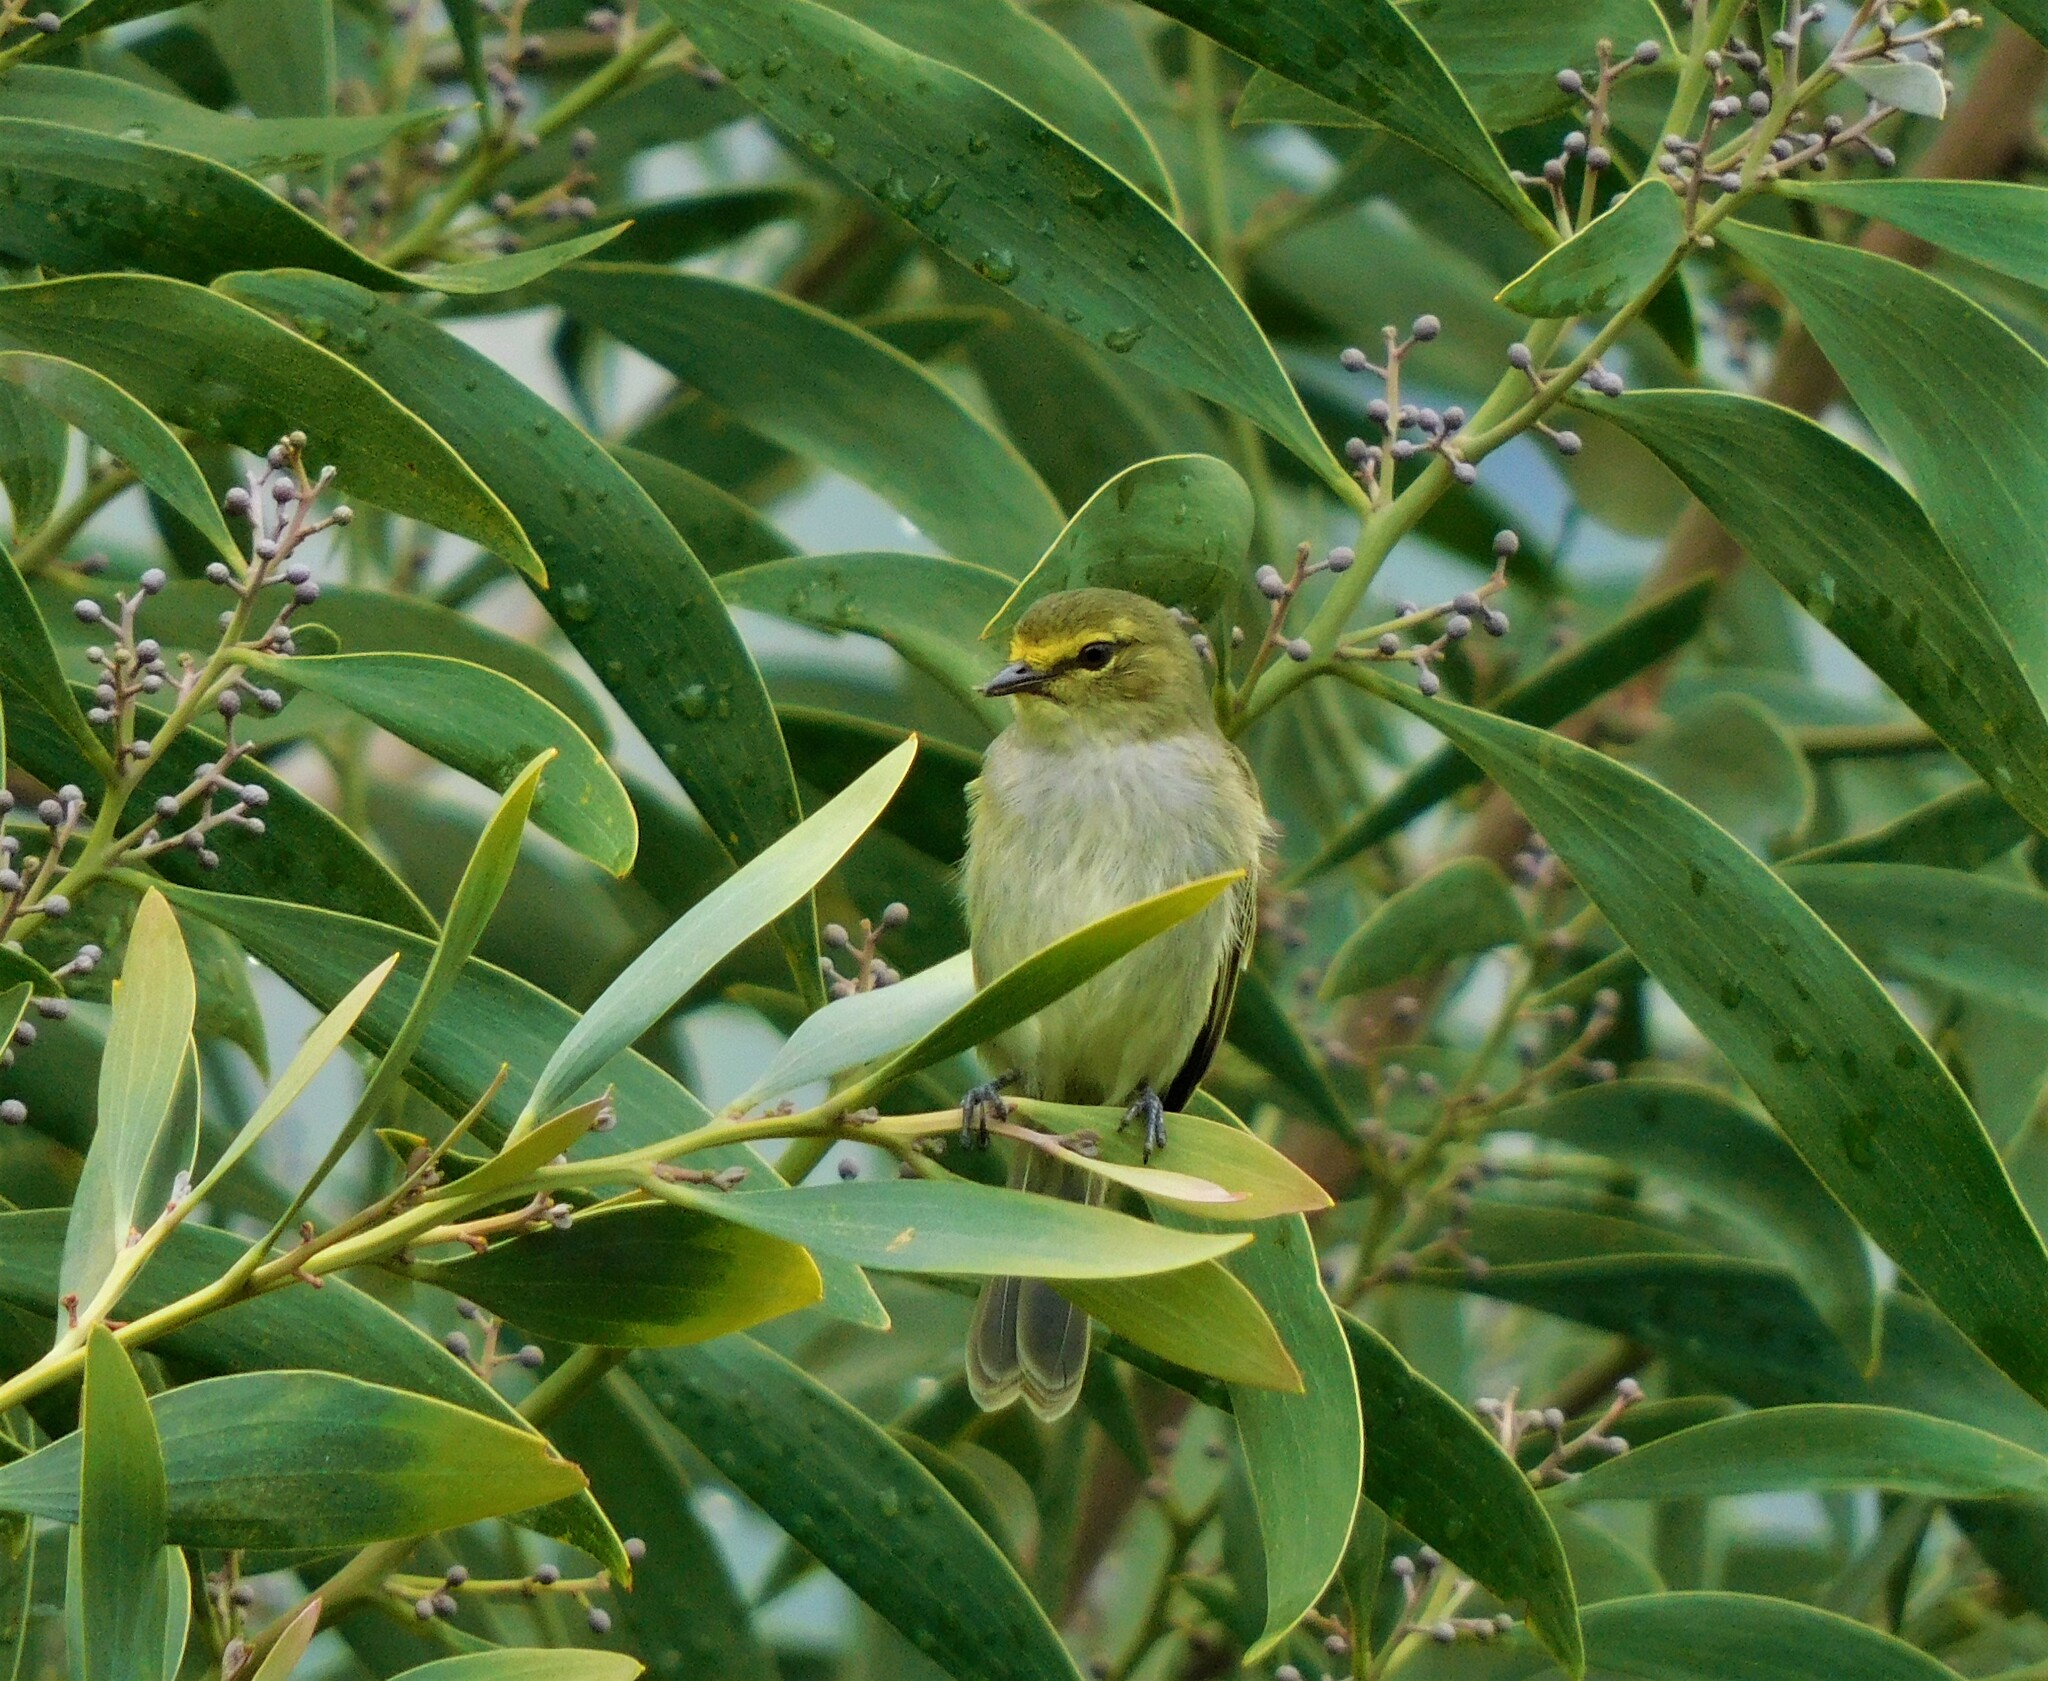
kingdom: Animalia
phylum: Chordata
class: Aves
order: Passeriformes
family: Tyrannidae
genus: Zimmerius
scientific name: Zimmerius chrysops
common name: Golden-faced tyrannulet
